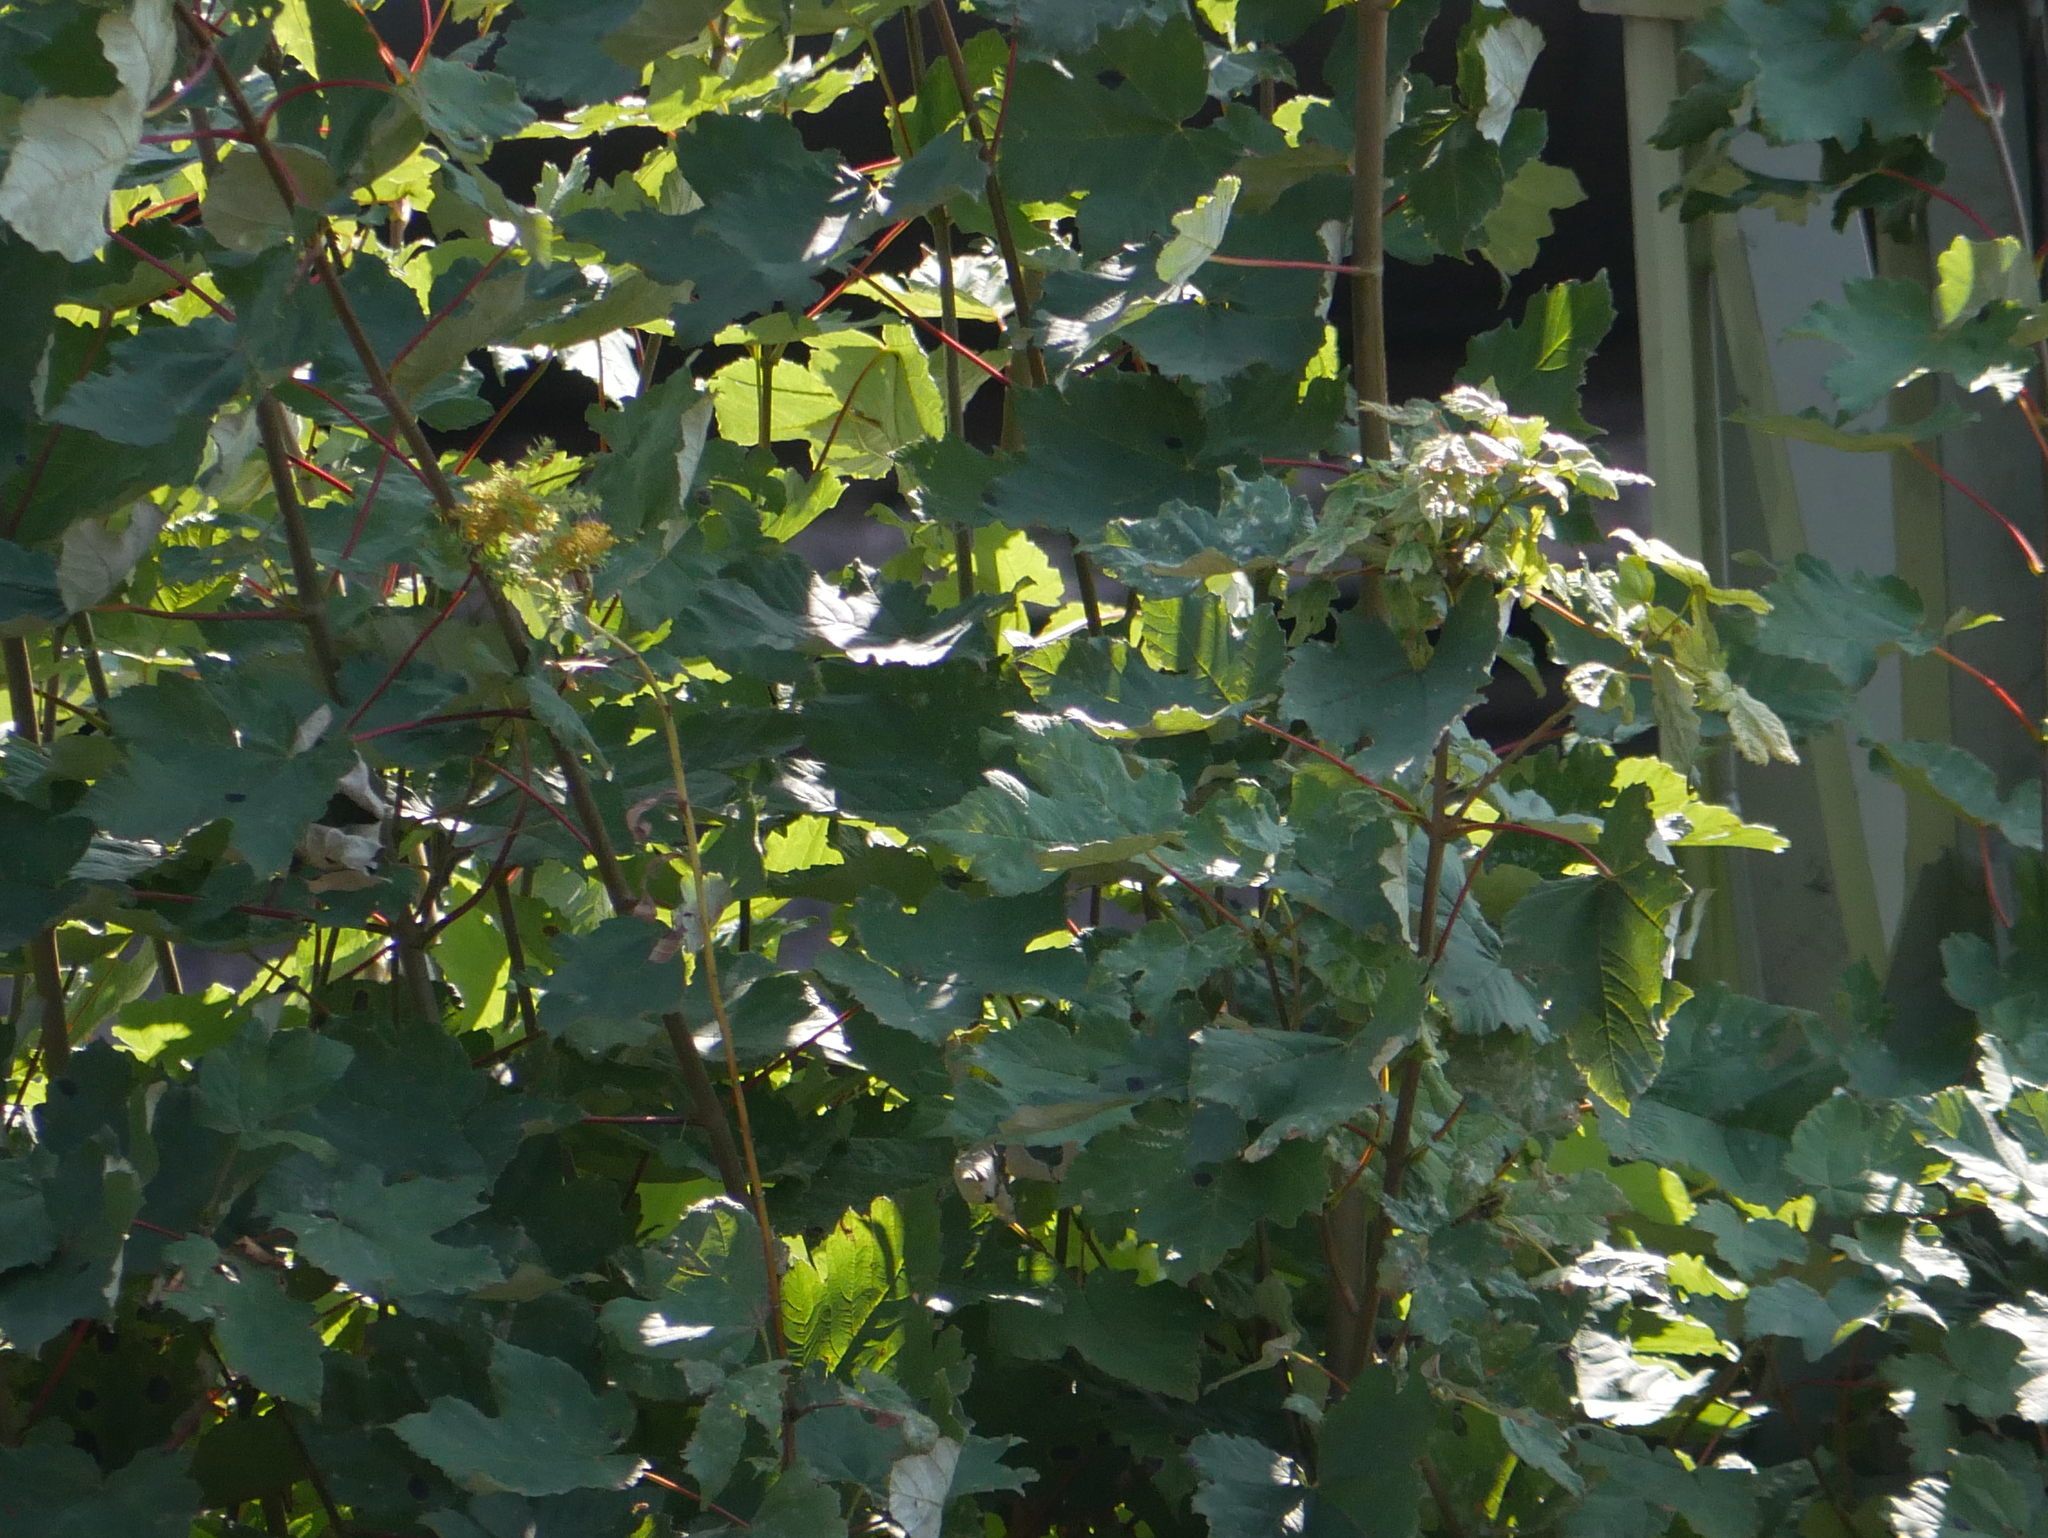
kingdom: Plantae
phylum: Tracheophyta
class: Magnoliopsida
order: Sapindales
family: Sapindaceae
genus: Acer
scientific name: Acer pseudoplatanus
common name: Sycamore
